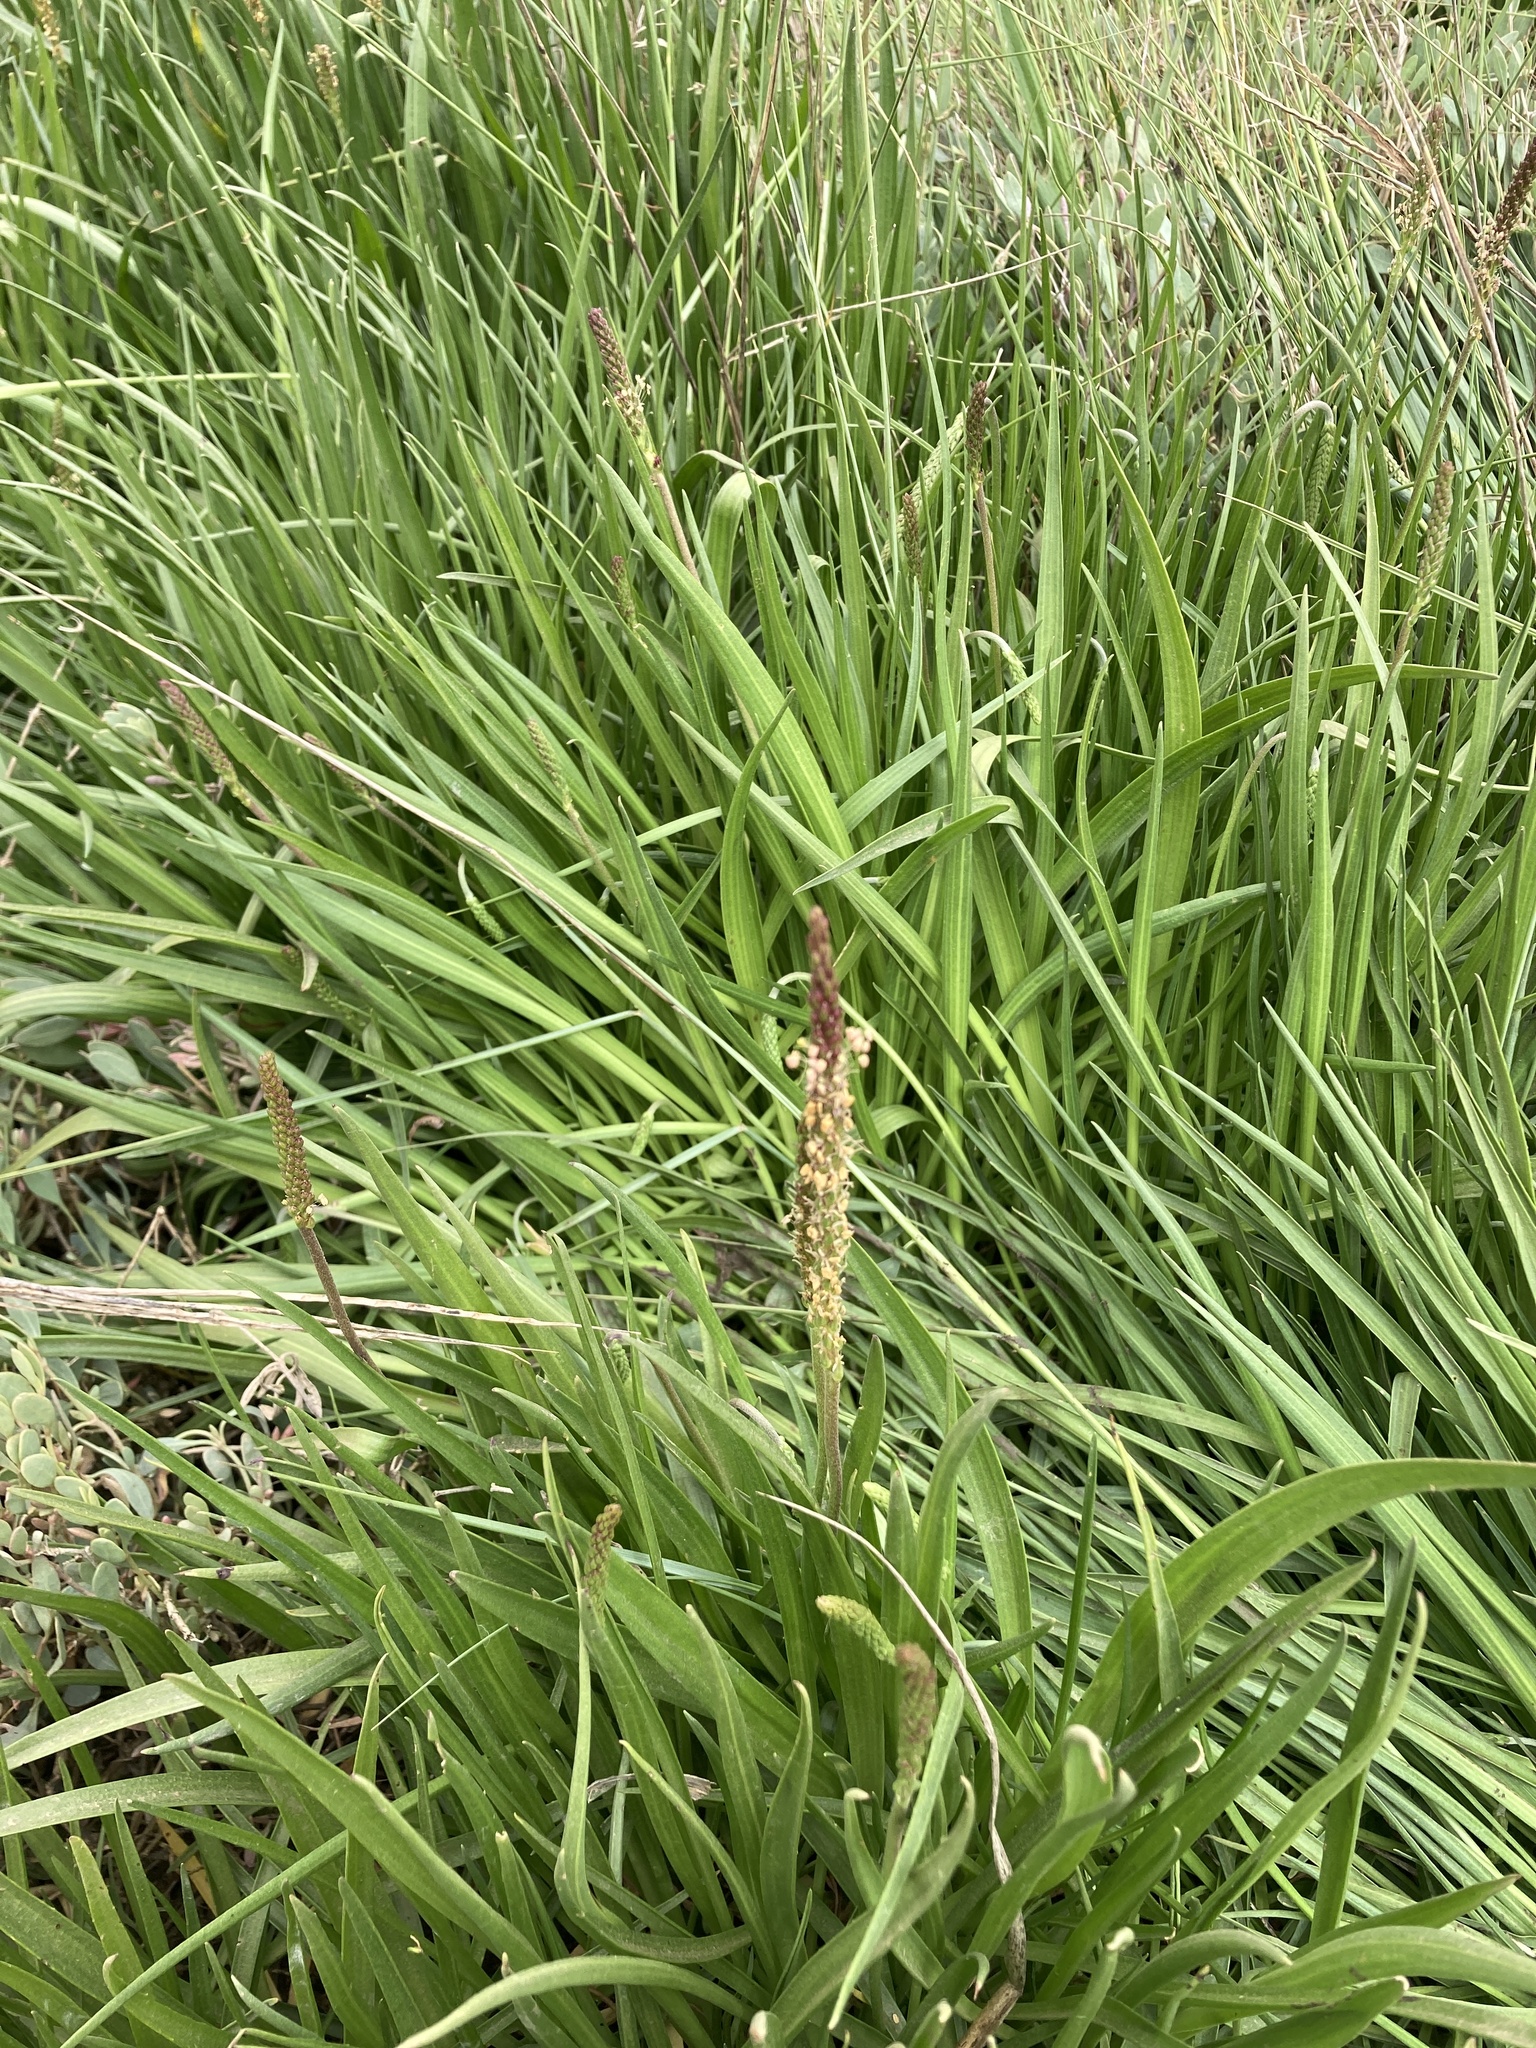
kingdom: Plantae
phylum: Tracheophyta
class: Magnoliopsida
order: Lamiales
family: Plantaginaceae
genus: Plantago
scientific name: Plantago maritima
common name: Sea plantain
